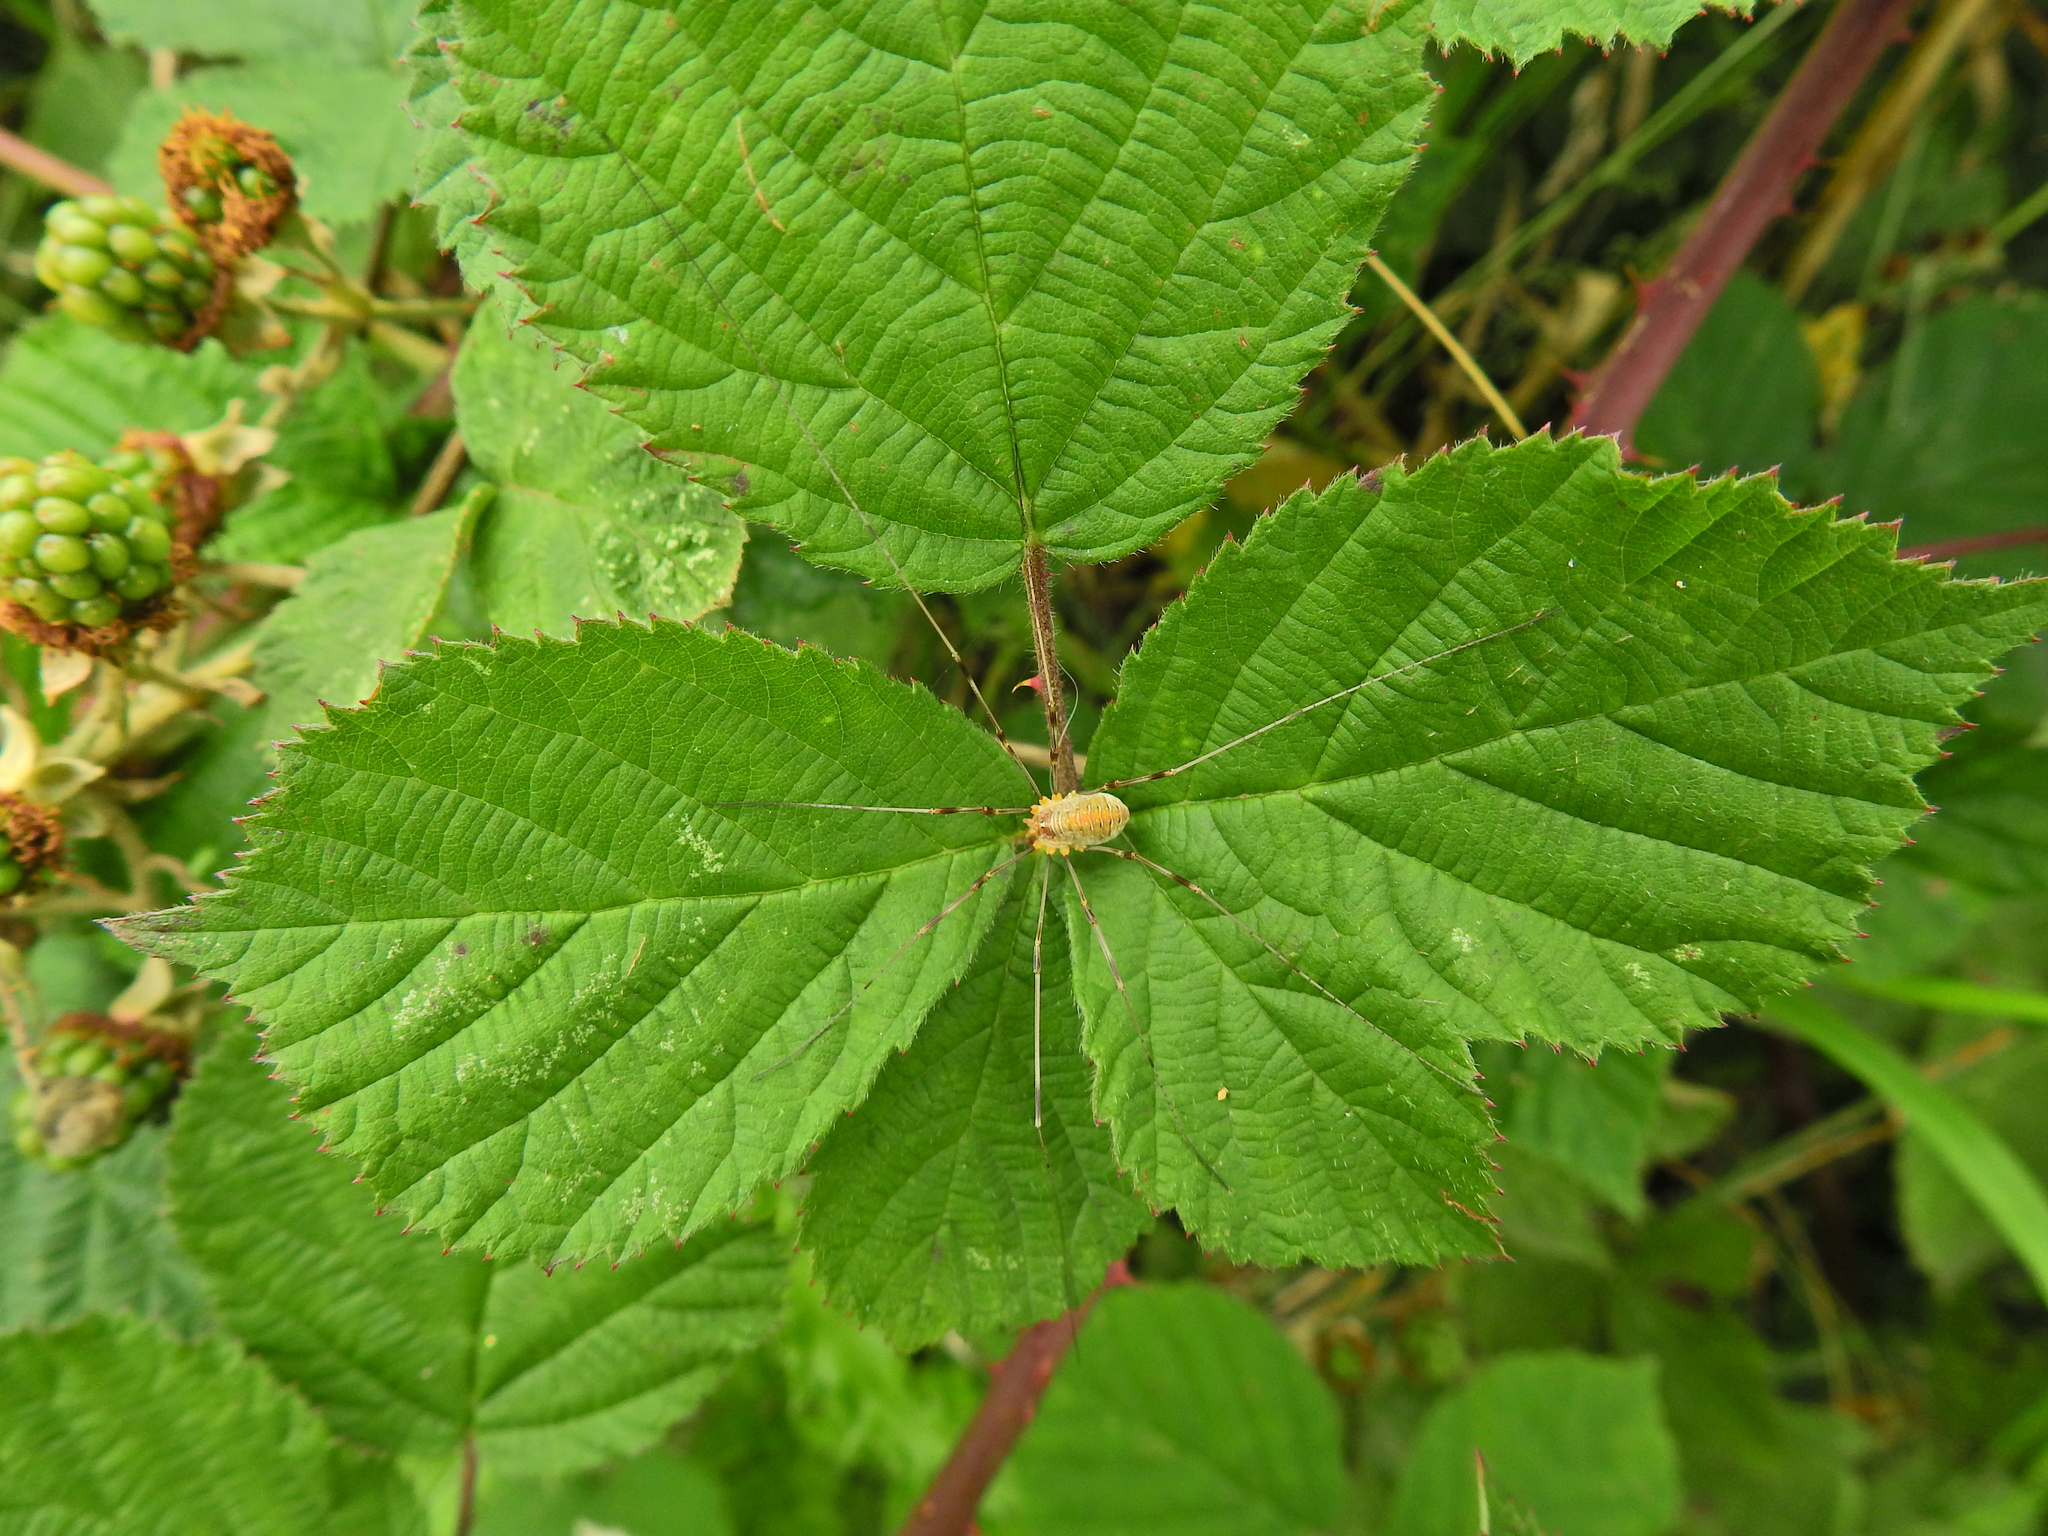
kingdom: Animalia
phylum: Arthropoda
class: Arachnida
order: Opiliones
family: Phalangiidae
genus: Opilio
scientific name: Opilio canestrinii
